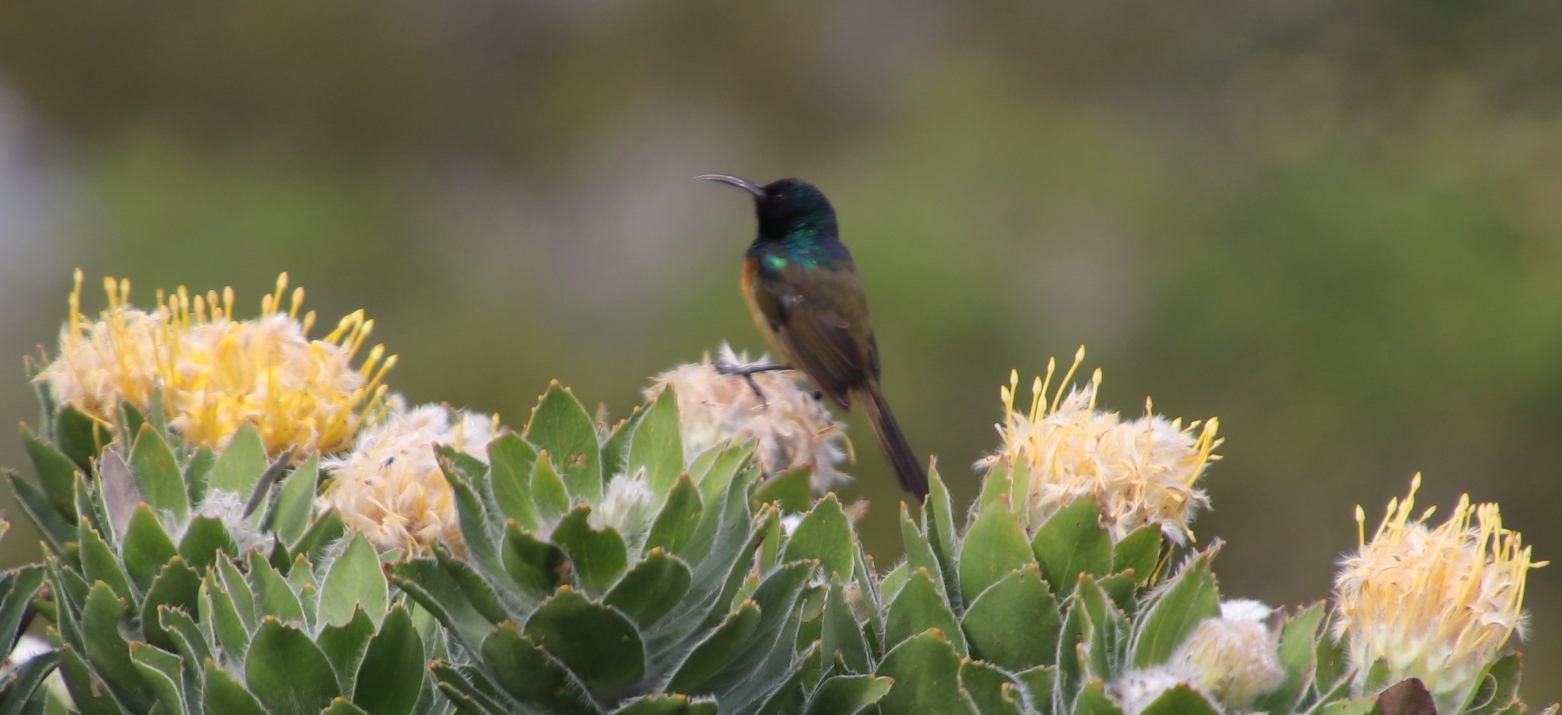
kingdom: Animalia
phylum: Chordata
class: Aves
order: Passeriformes
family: Nectariniidae
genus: Anthobaphes
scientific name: Anthobaphes violacea
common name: Orange-breasted sunbird
